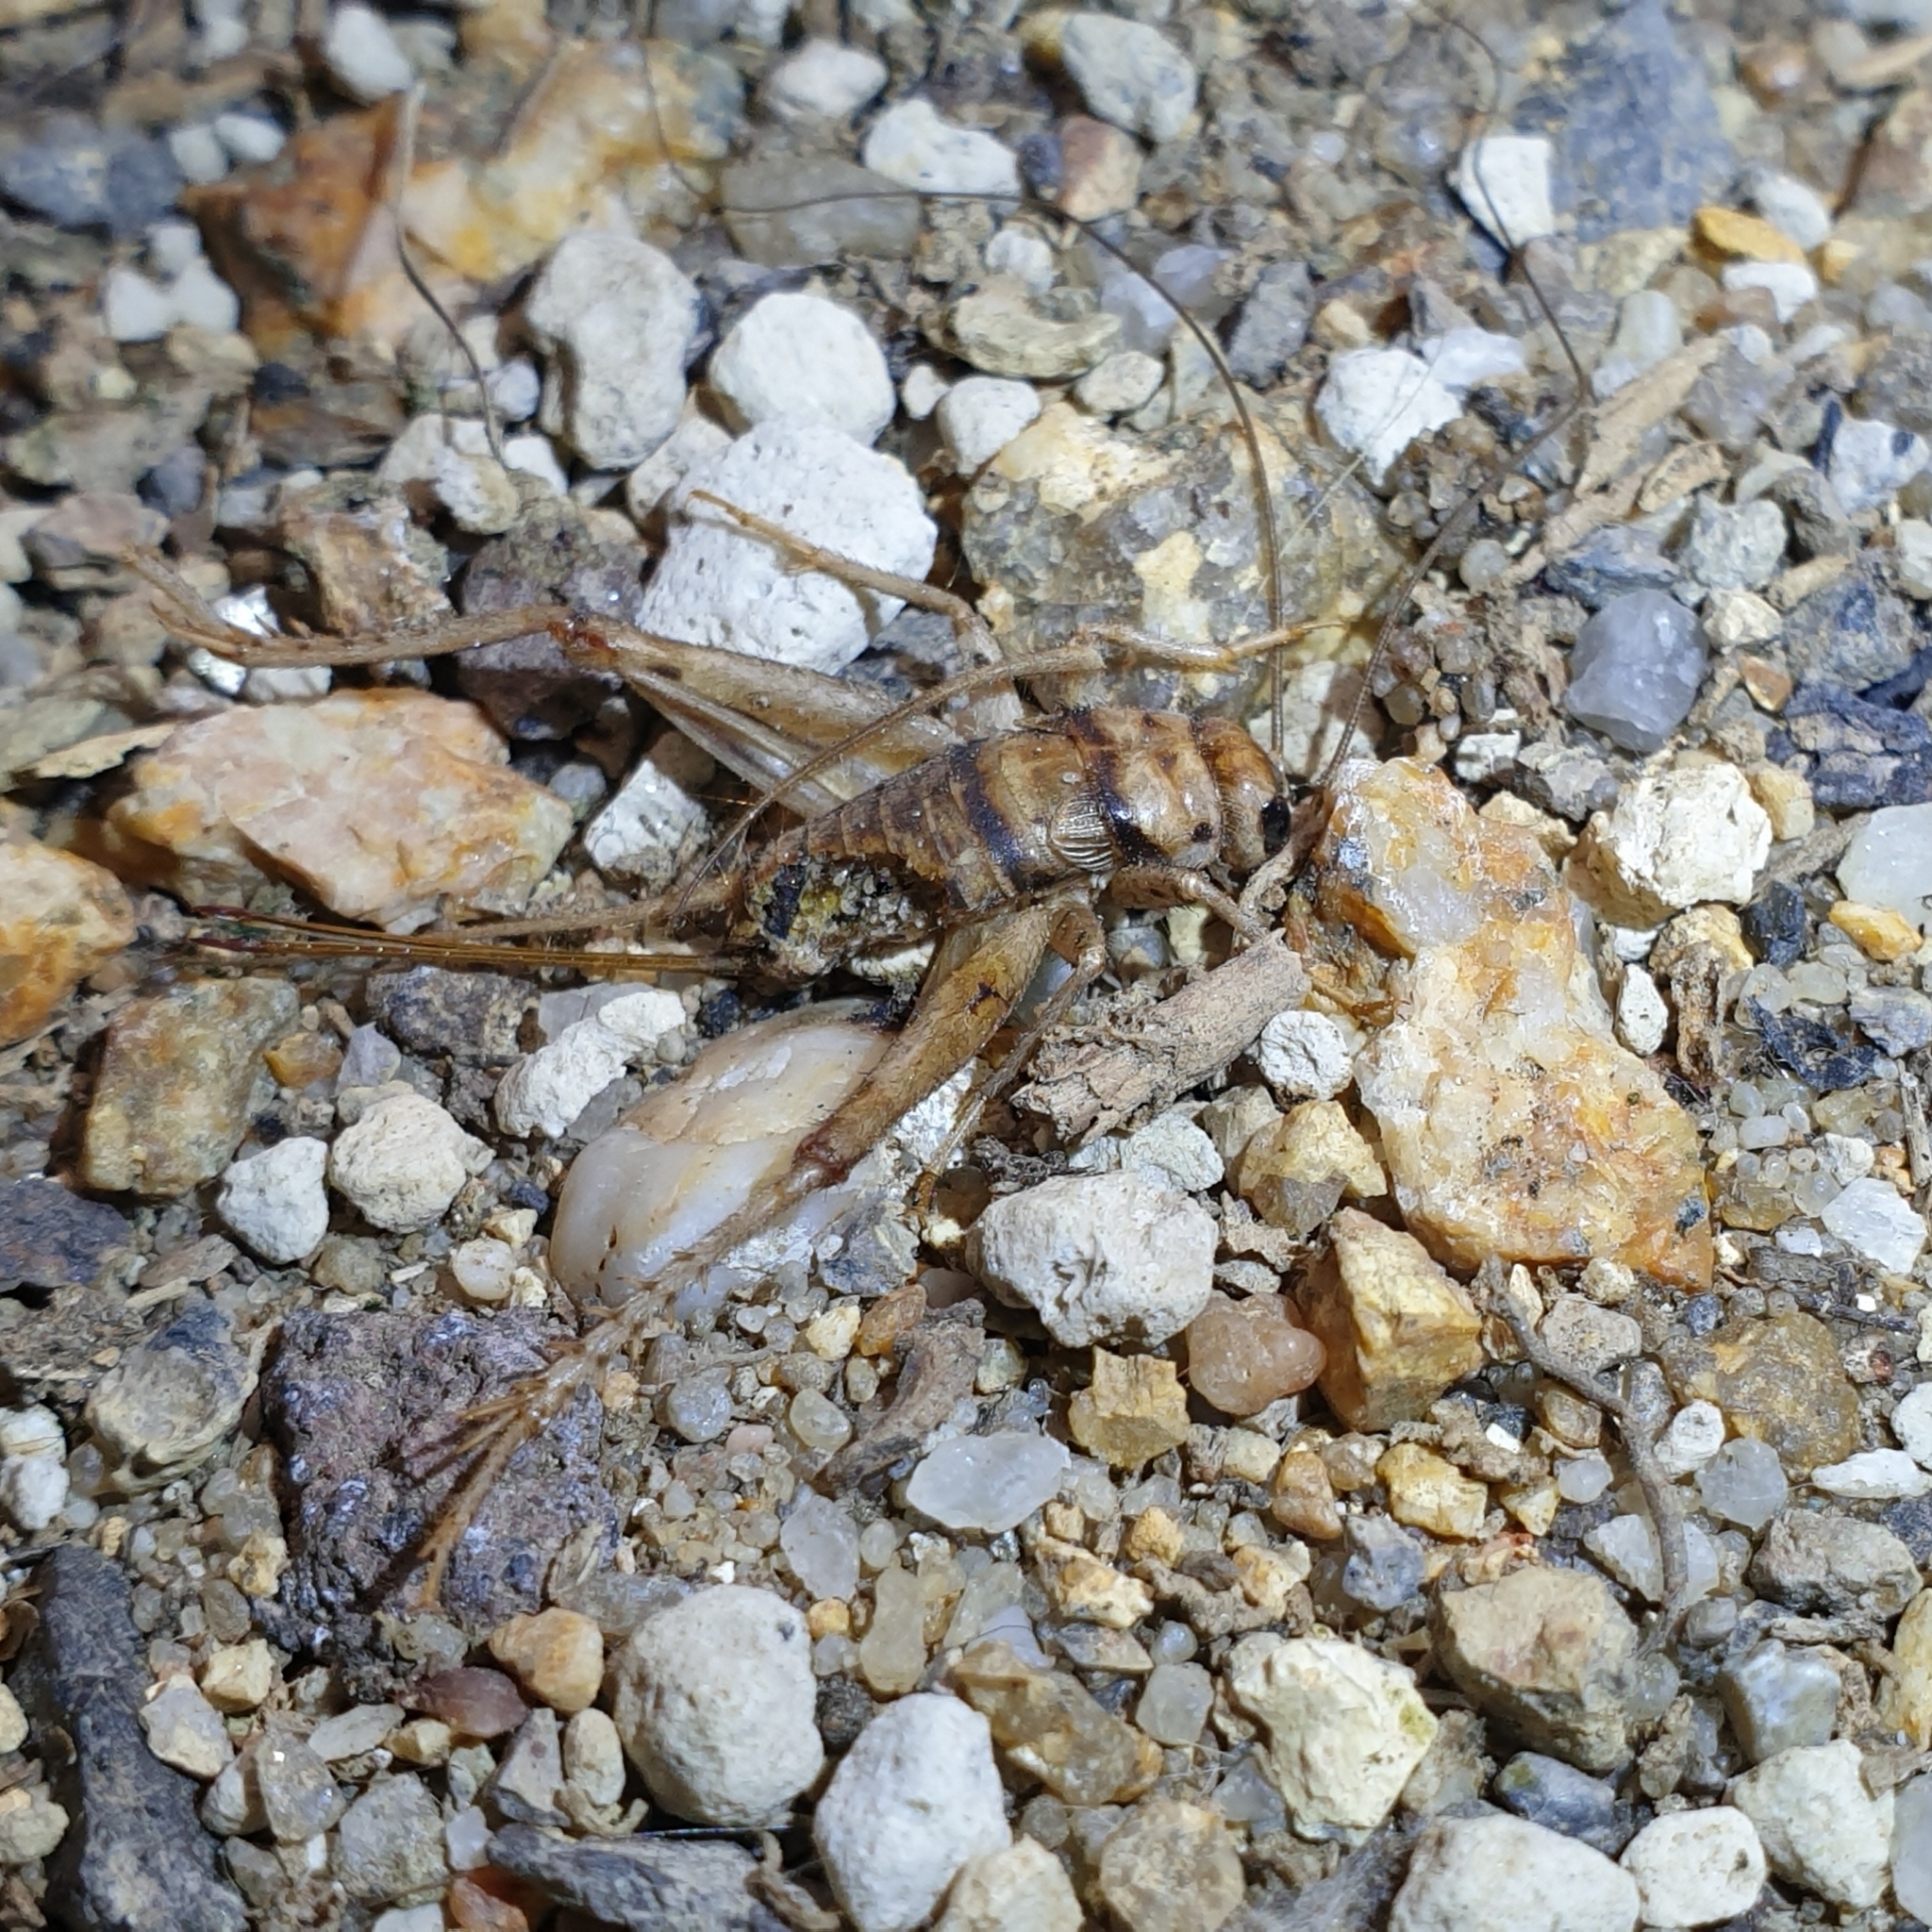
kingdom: Animalia
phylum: Arthropoda
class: Insecta
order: Orthoptera
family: Gryllidae
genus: Gryllodes
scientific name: Gryllodes sigillatus
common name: Tropical house cricket
